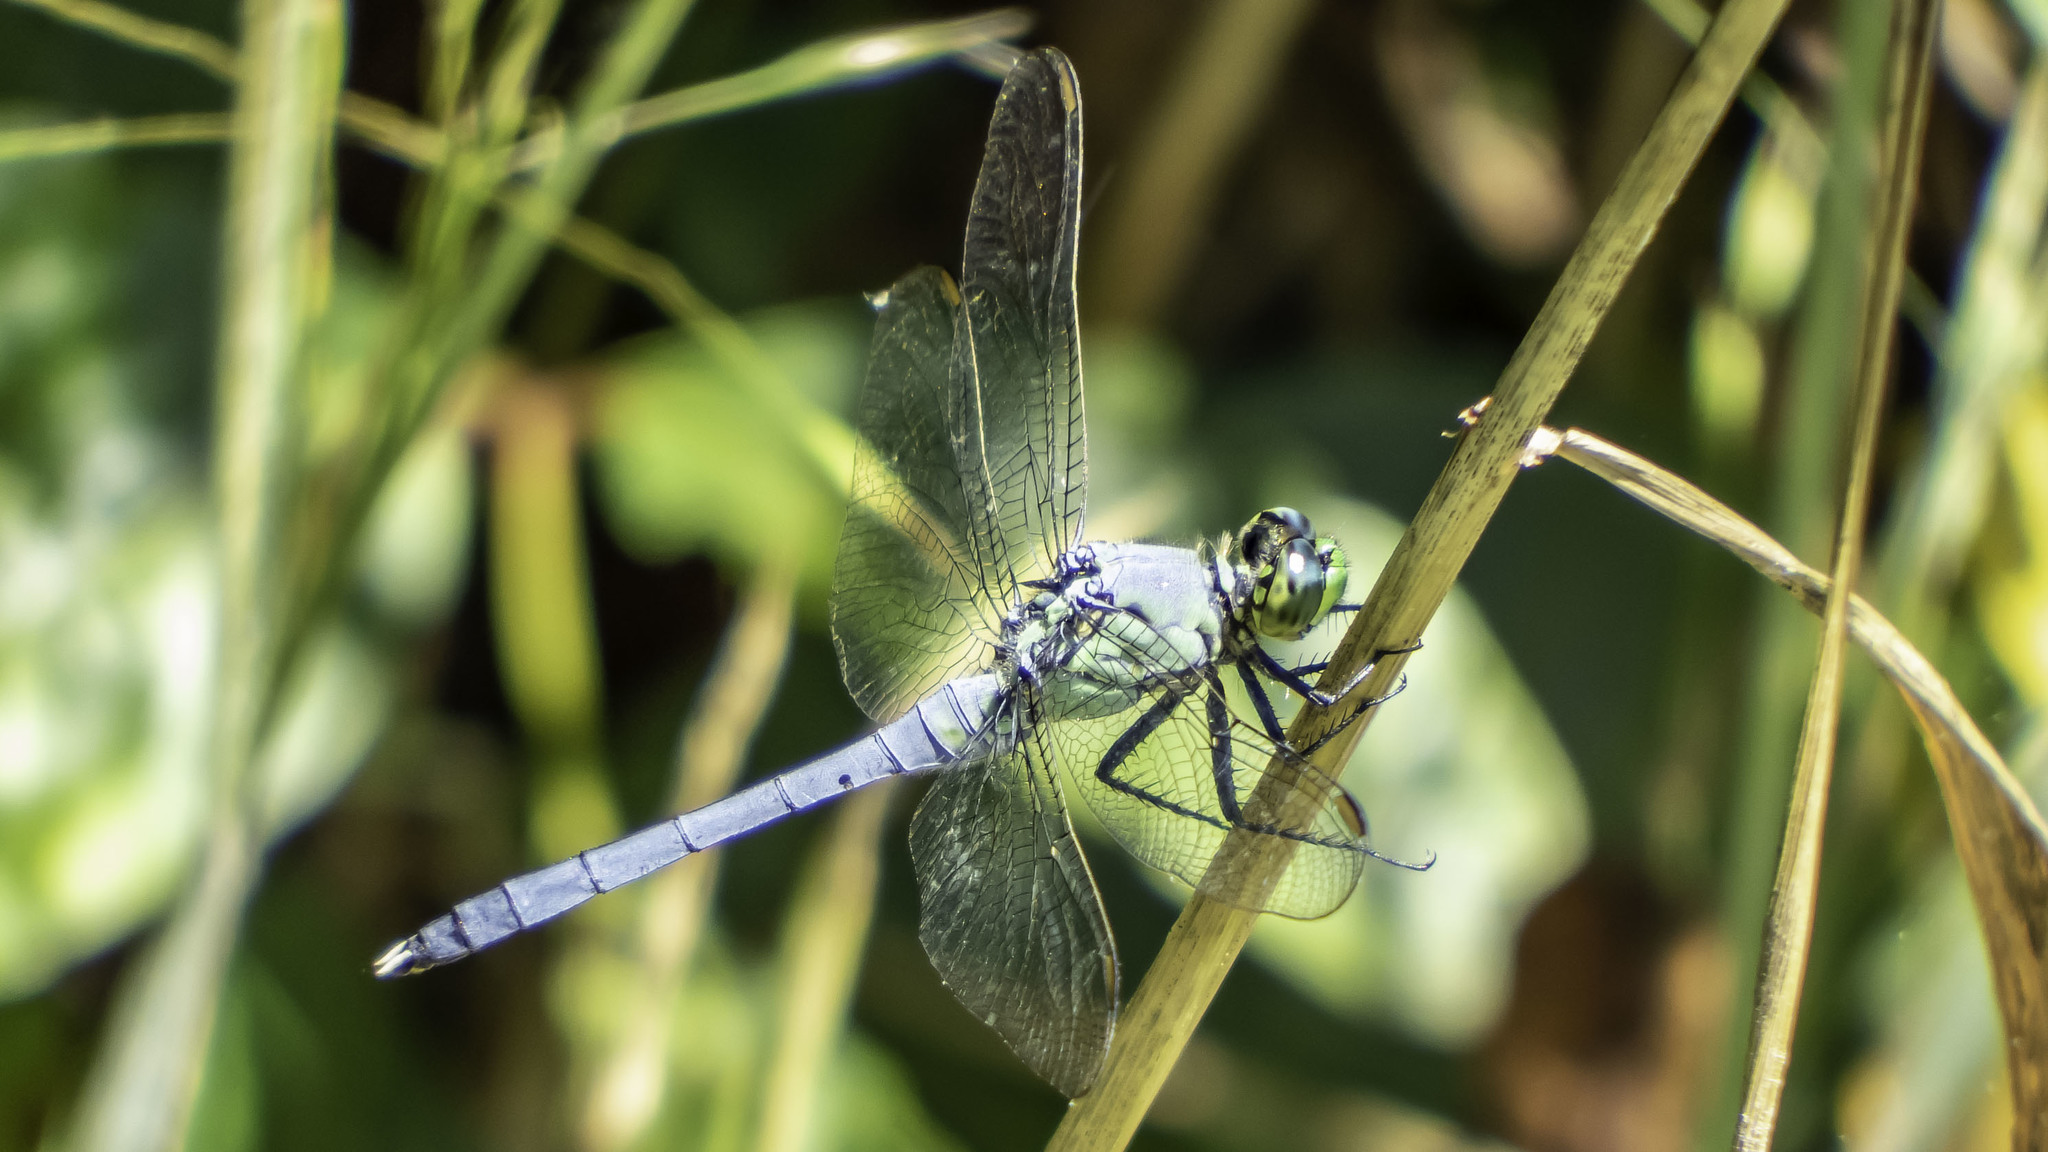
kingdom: Animalia
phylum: Arthropoda
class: Insecta
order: Odonata
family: Libellulidae
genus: Erythemis
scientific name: Erythemis simplicicollis
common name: Eastern pondhawk
